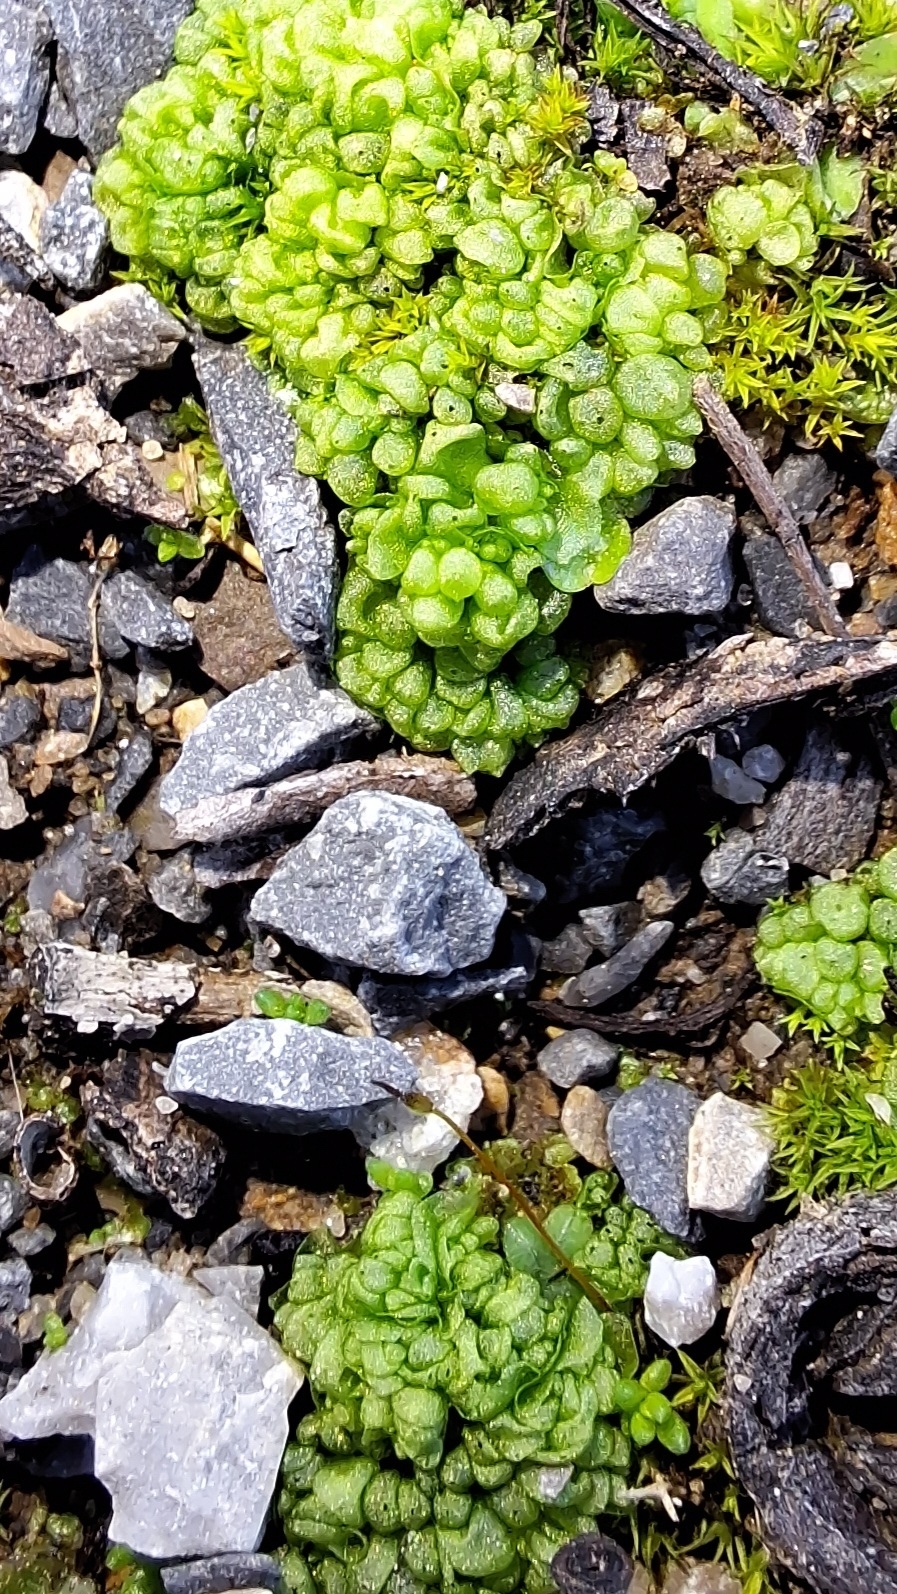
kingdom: Plantae
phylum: Marchantiophyta
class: Marchantiopsida
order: Sphaerocarpales
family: Sphaerocarpaceae
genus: Sphaerocarpos
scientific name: Sphaerocarpos texanus
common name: Texas balloonwort
